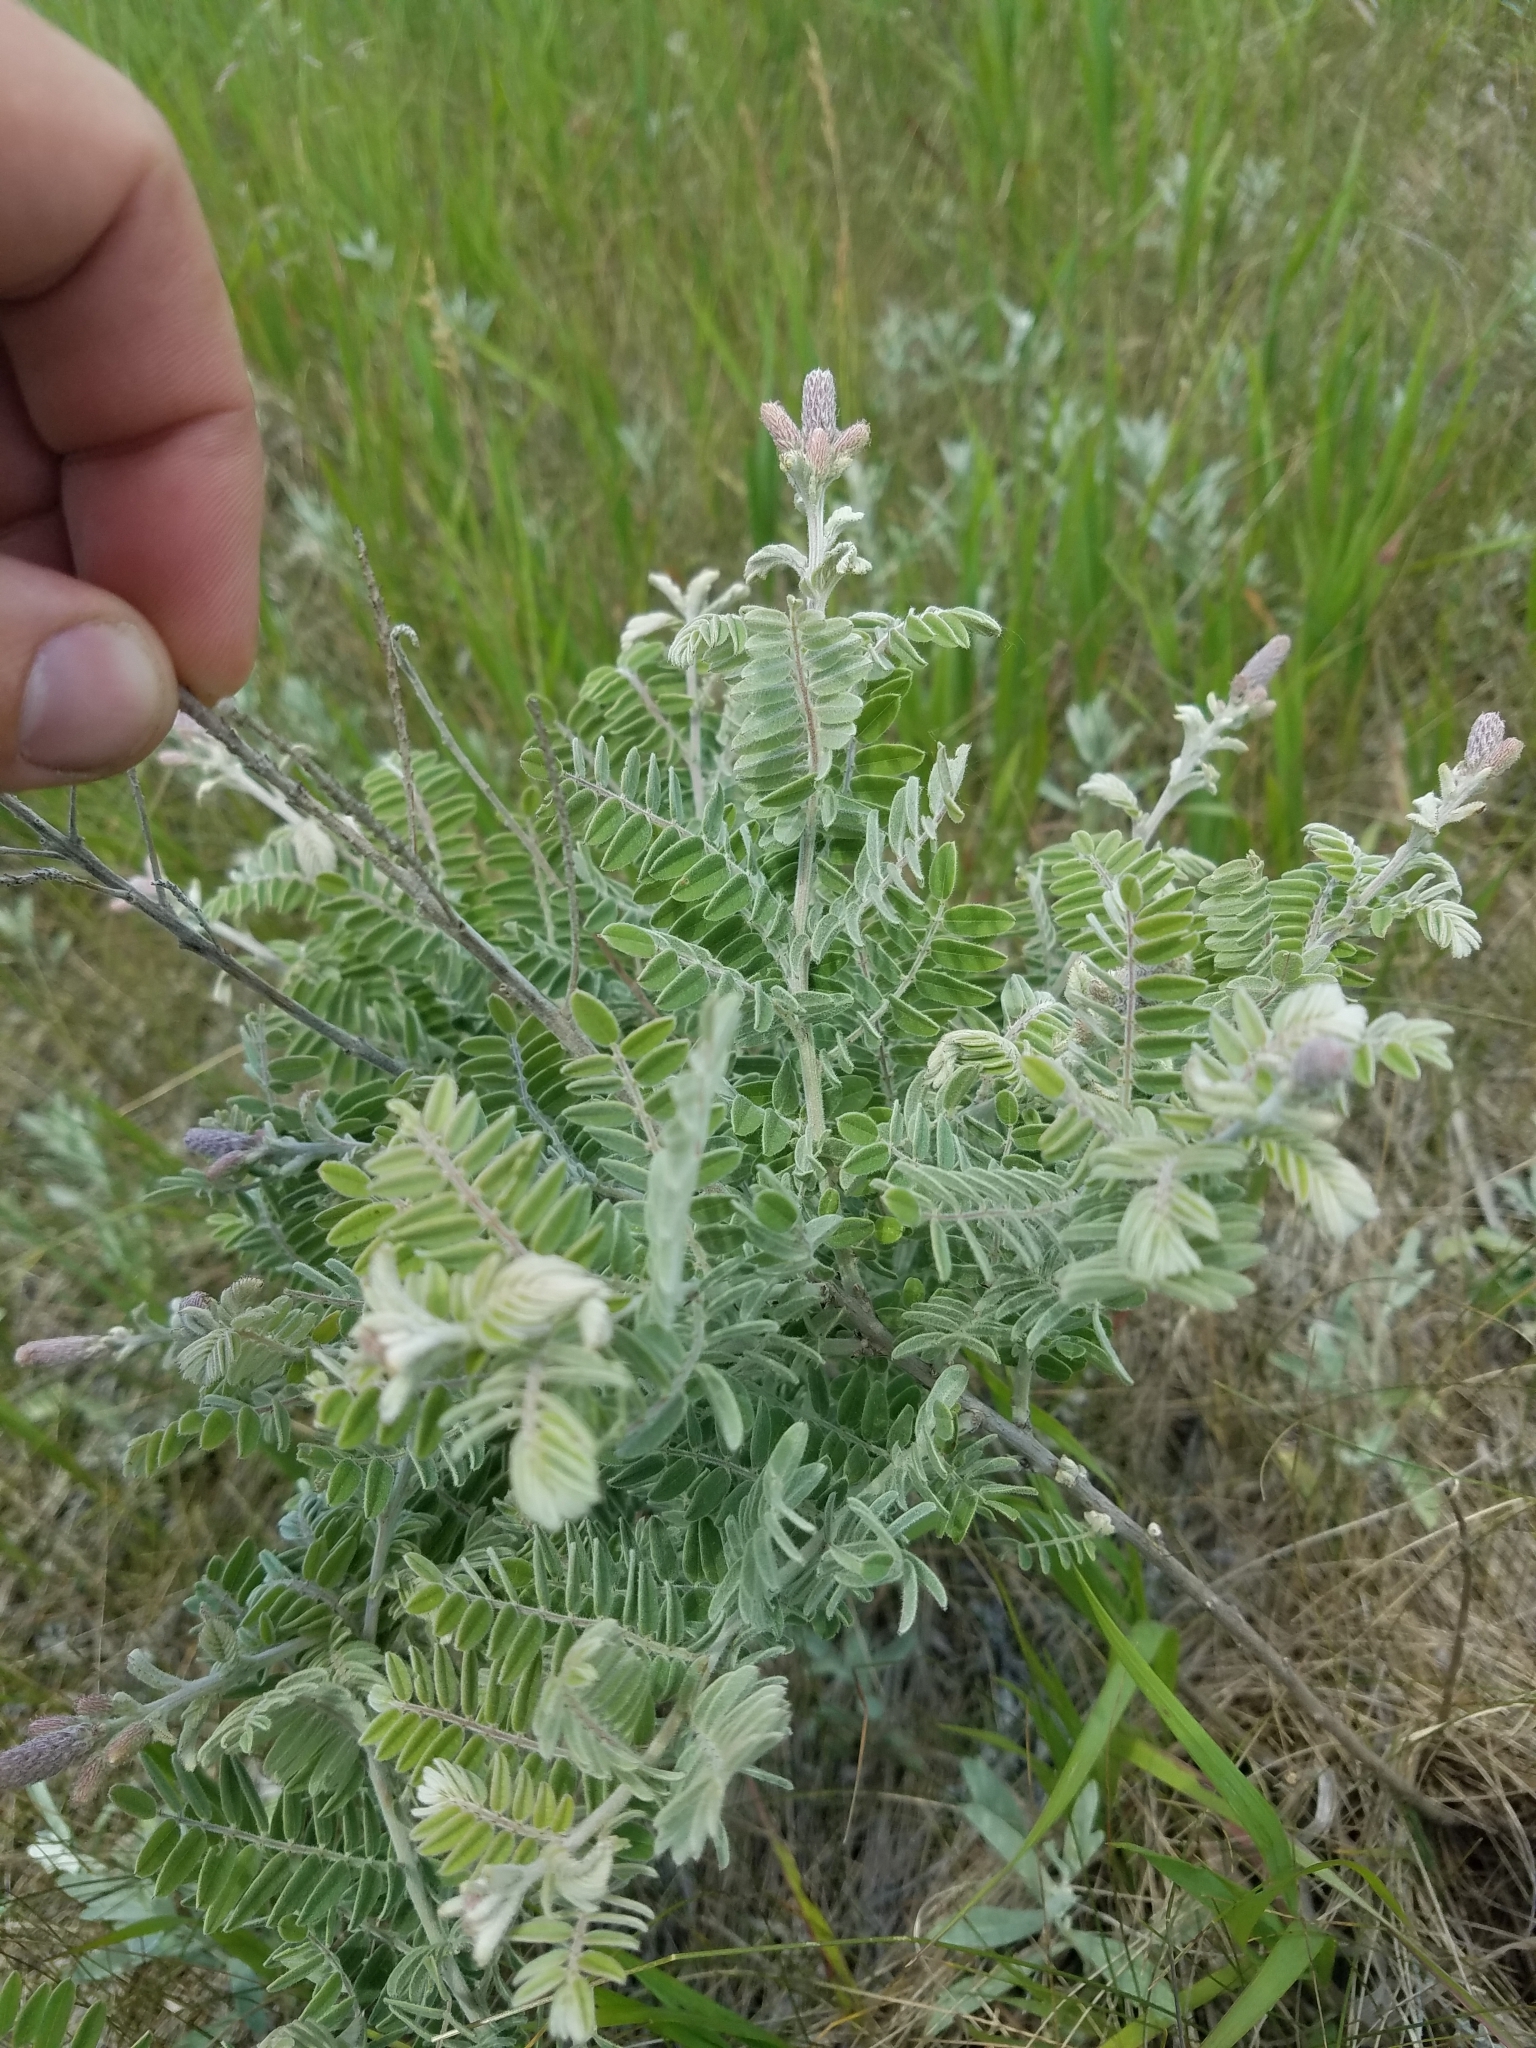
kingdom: Plantae
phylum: Tracheophyta
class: Magnoliopsida
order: Fabales
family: Fabaceae
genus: Amorpha
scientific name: Amorpha canescens
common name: Leadplant
